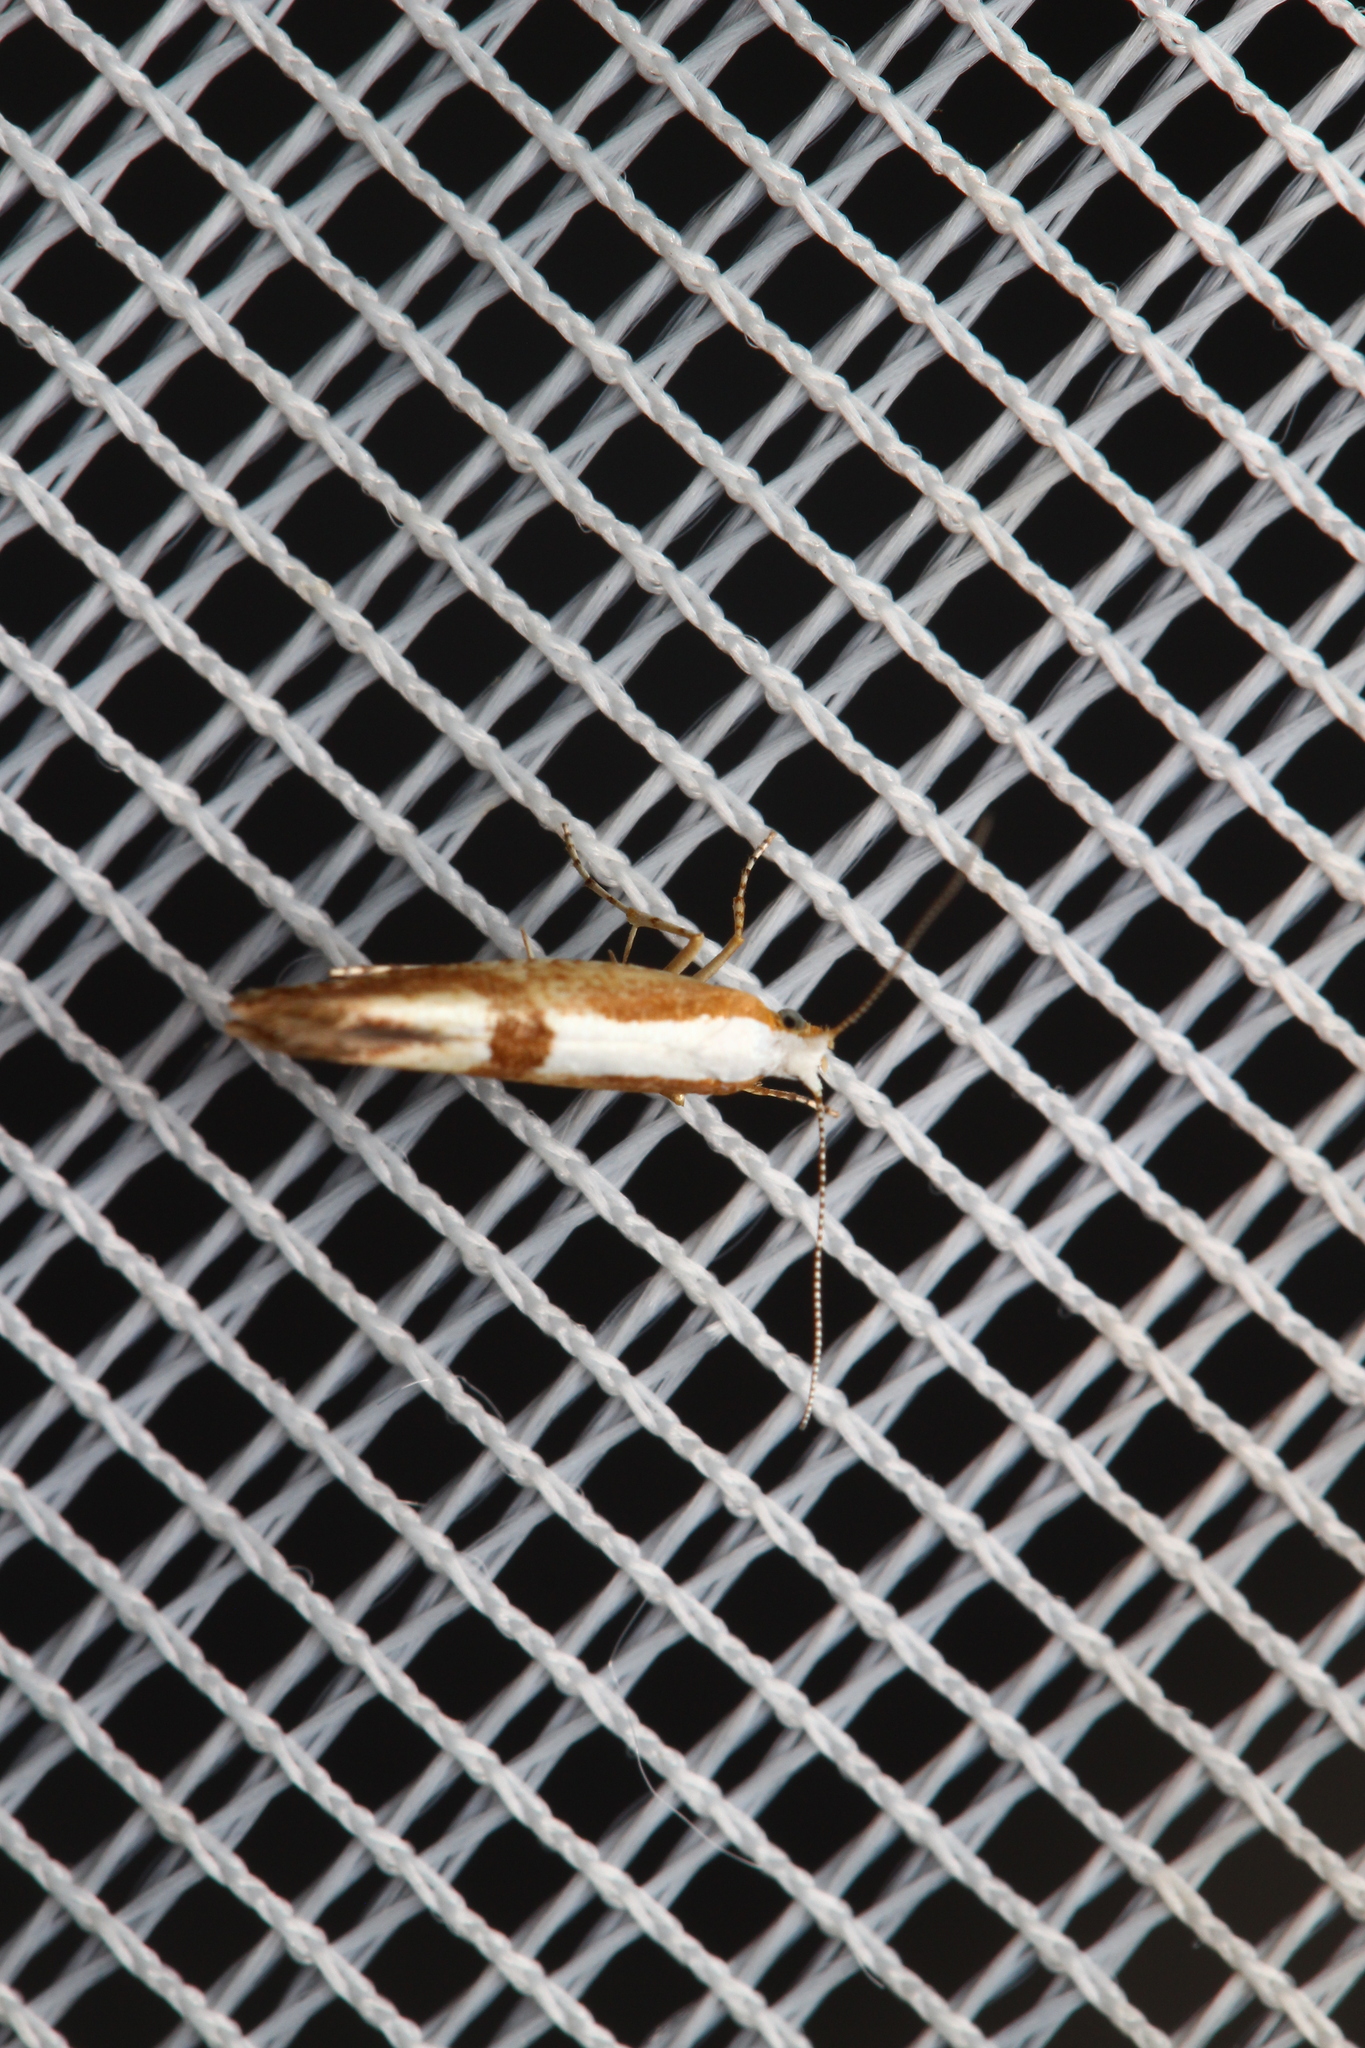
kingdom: Animalia
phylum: Arthropoda
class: Insecta
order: Lepidoptera
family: Argyresthiidae
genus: Argyresthia
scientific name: Argyresthia pruniella
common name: Cherry fruit moth
